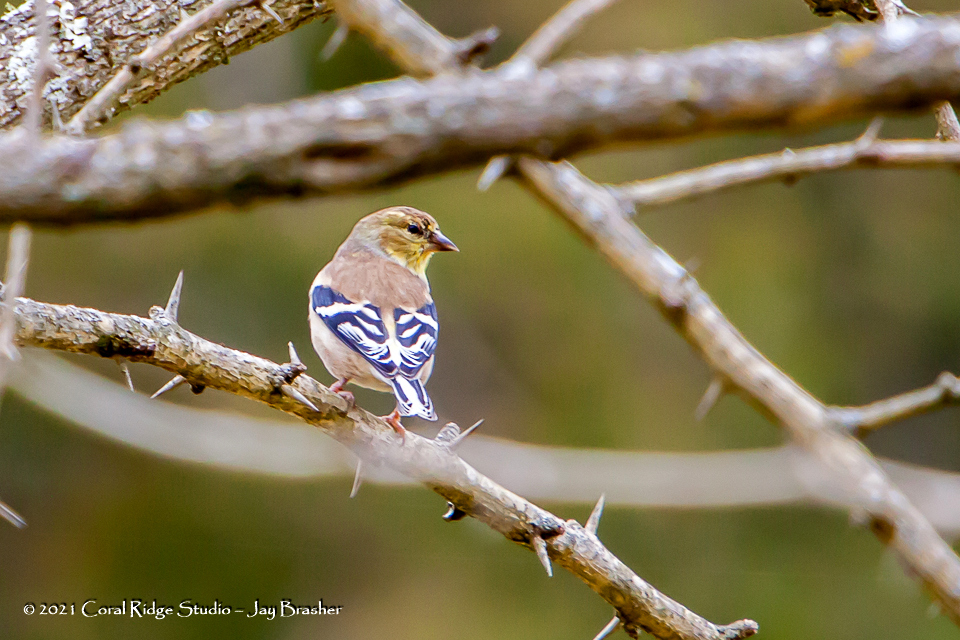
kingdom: Animalia
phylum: Chordata
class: Aves
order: Passeriformes
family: Fringillidae
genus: Spinus
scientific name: Spinus tristis
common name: American goldfinch
